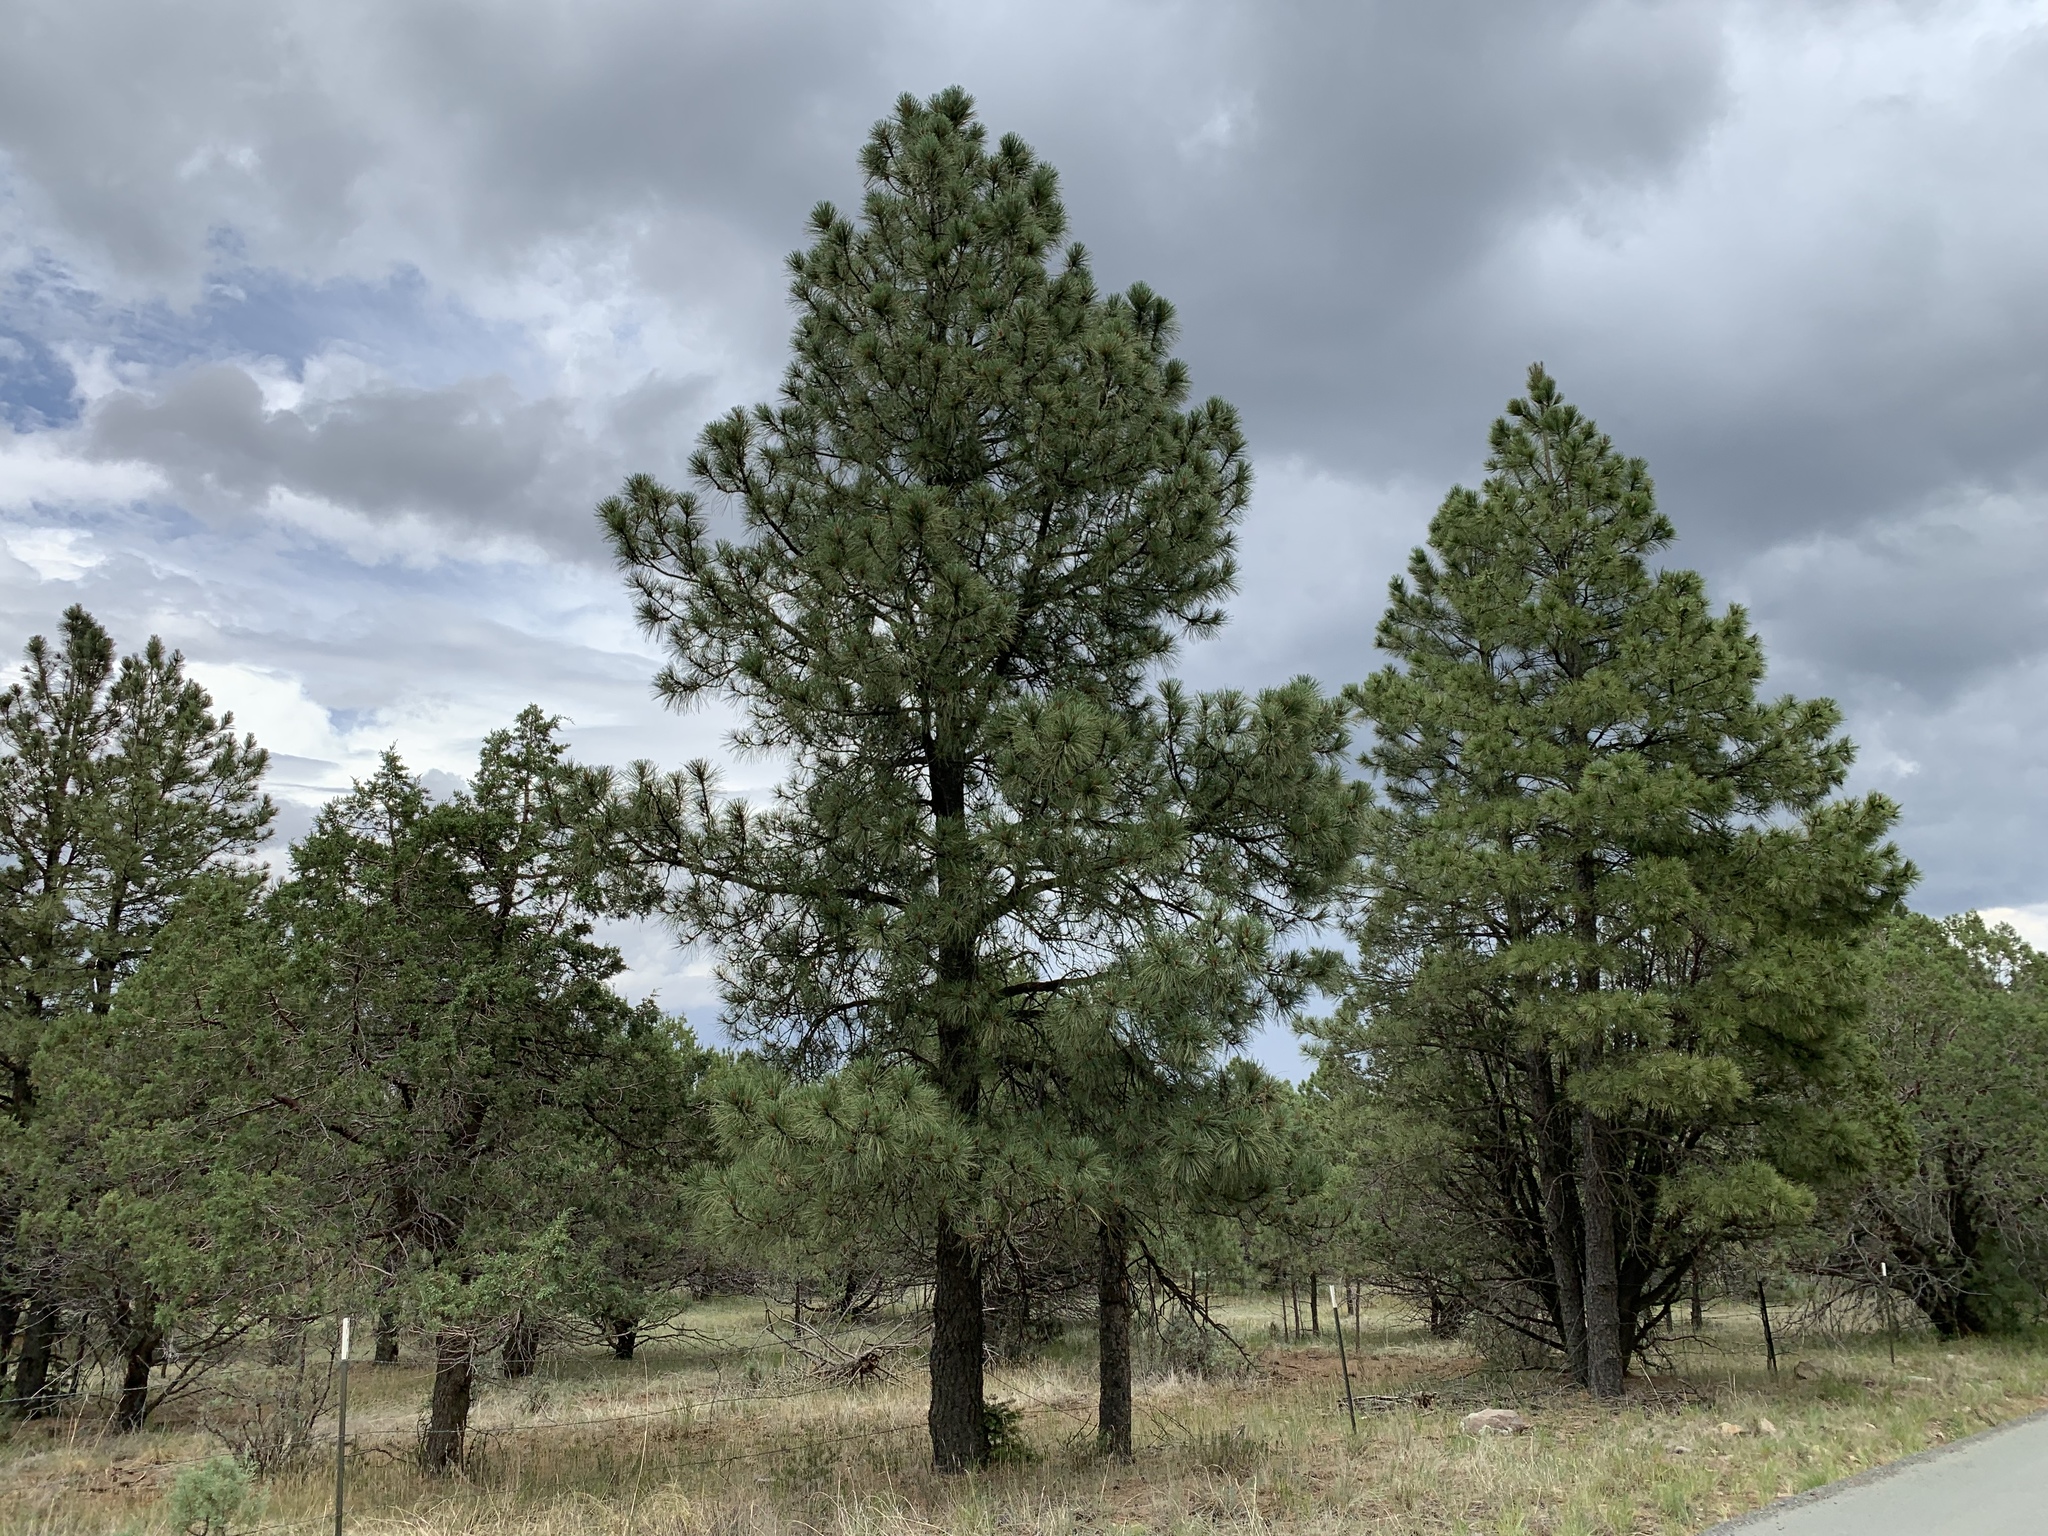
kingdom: Plantae
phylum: Tracheophyta
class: Pinopsida
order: Pinales
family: Pinaceae
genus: Pinus
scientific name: Pinus ponderosa
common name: Western yellow-pine
